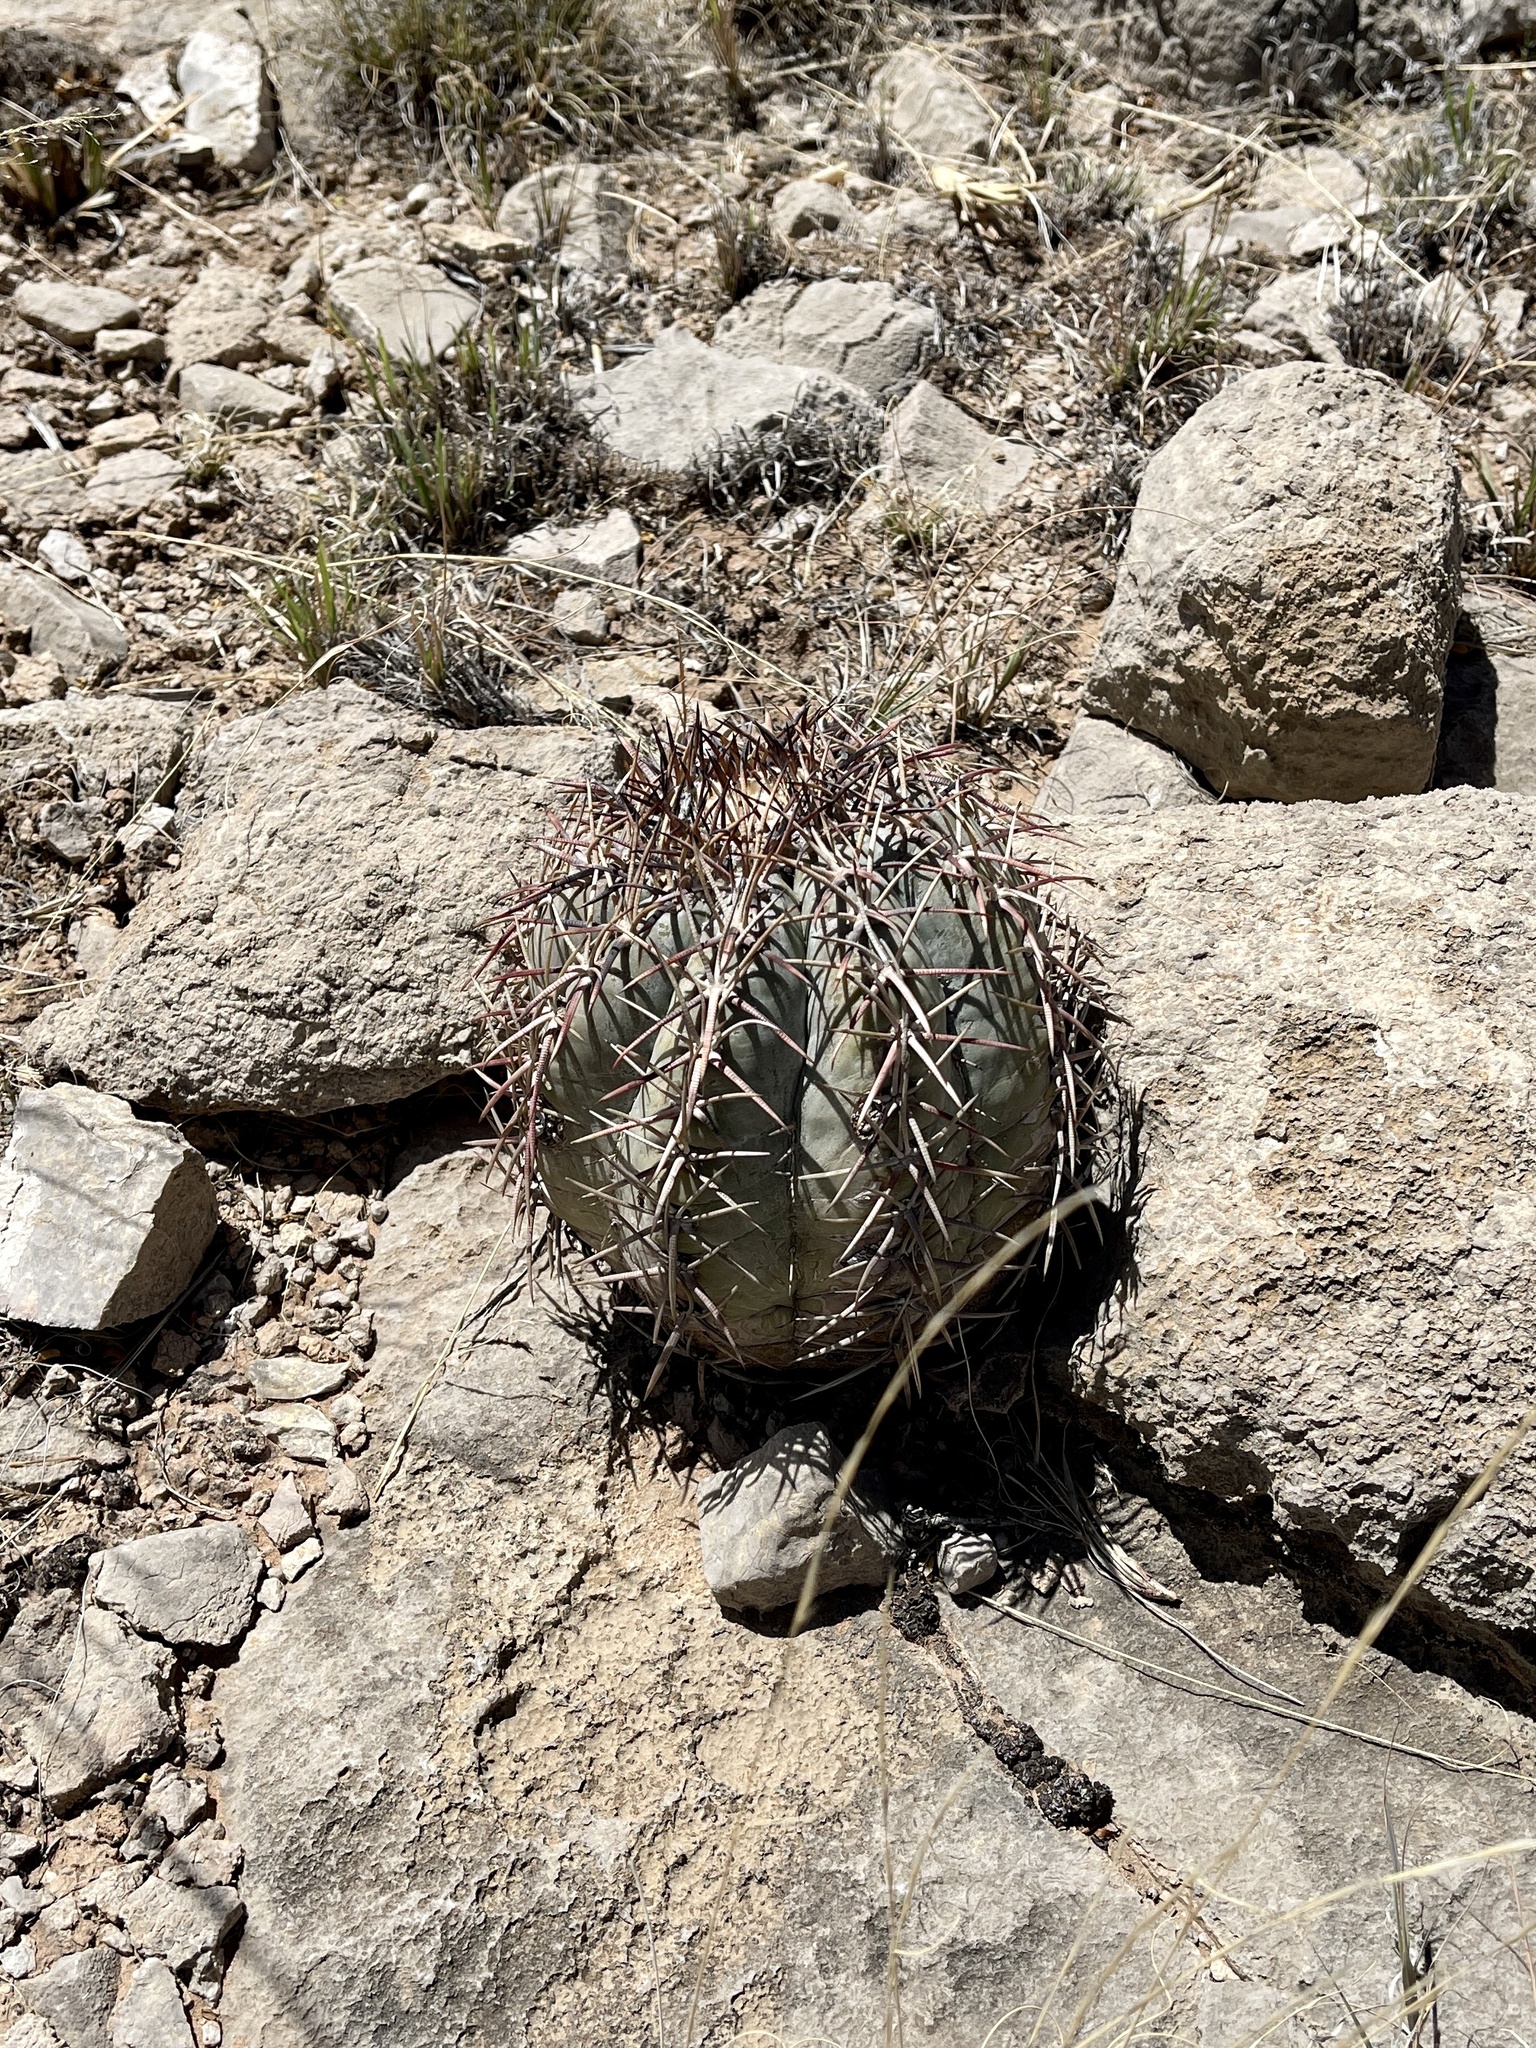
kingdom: Plantae
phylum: Tracheophyta
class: Magnoliopsida
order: Caryophyllales
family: Cactaceae
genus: Echinocactus
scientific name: Echinocactus horizonthalonius
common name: Devilshead
